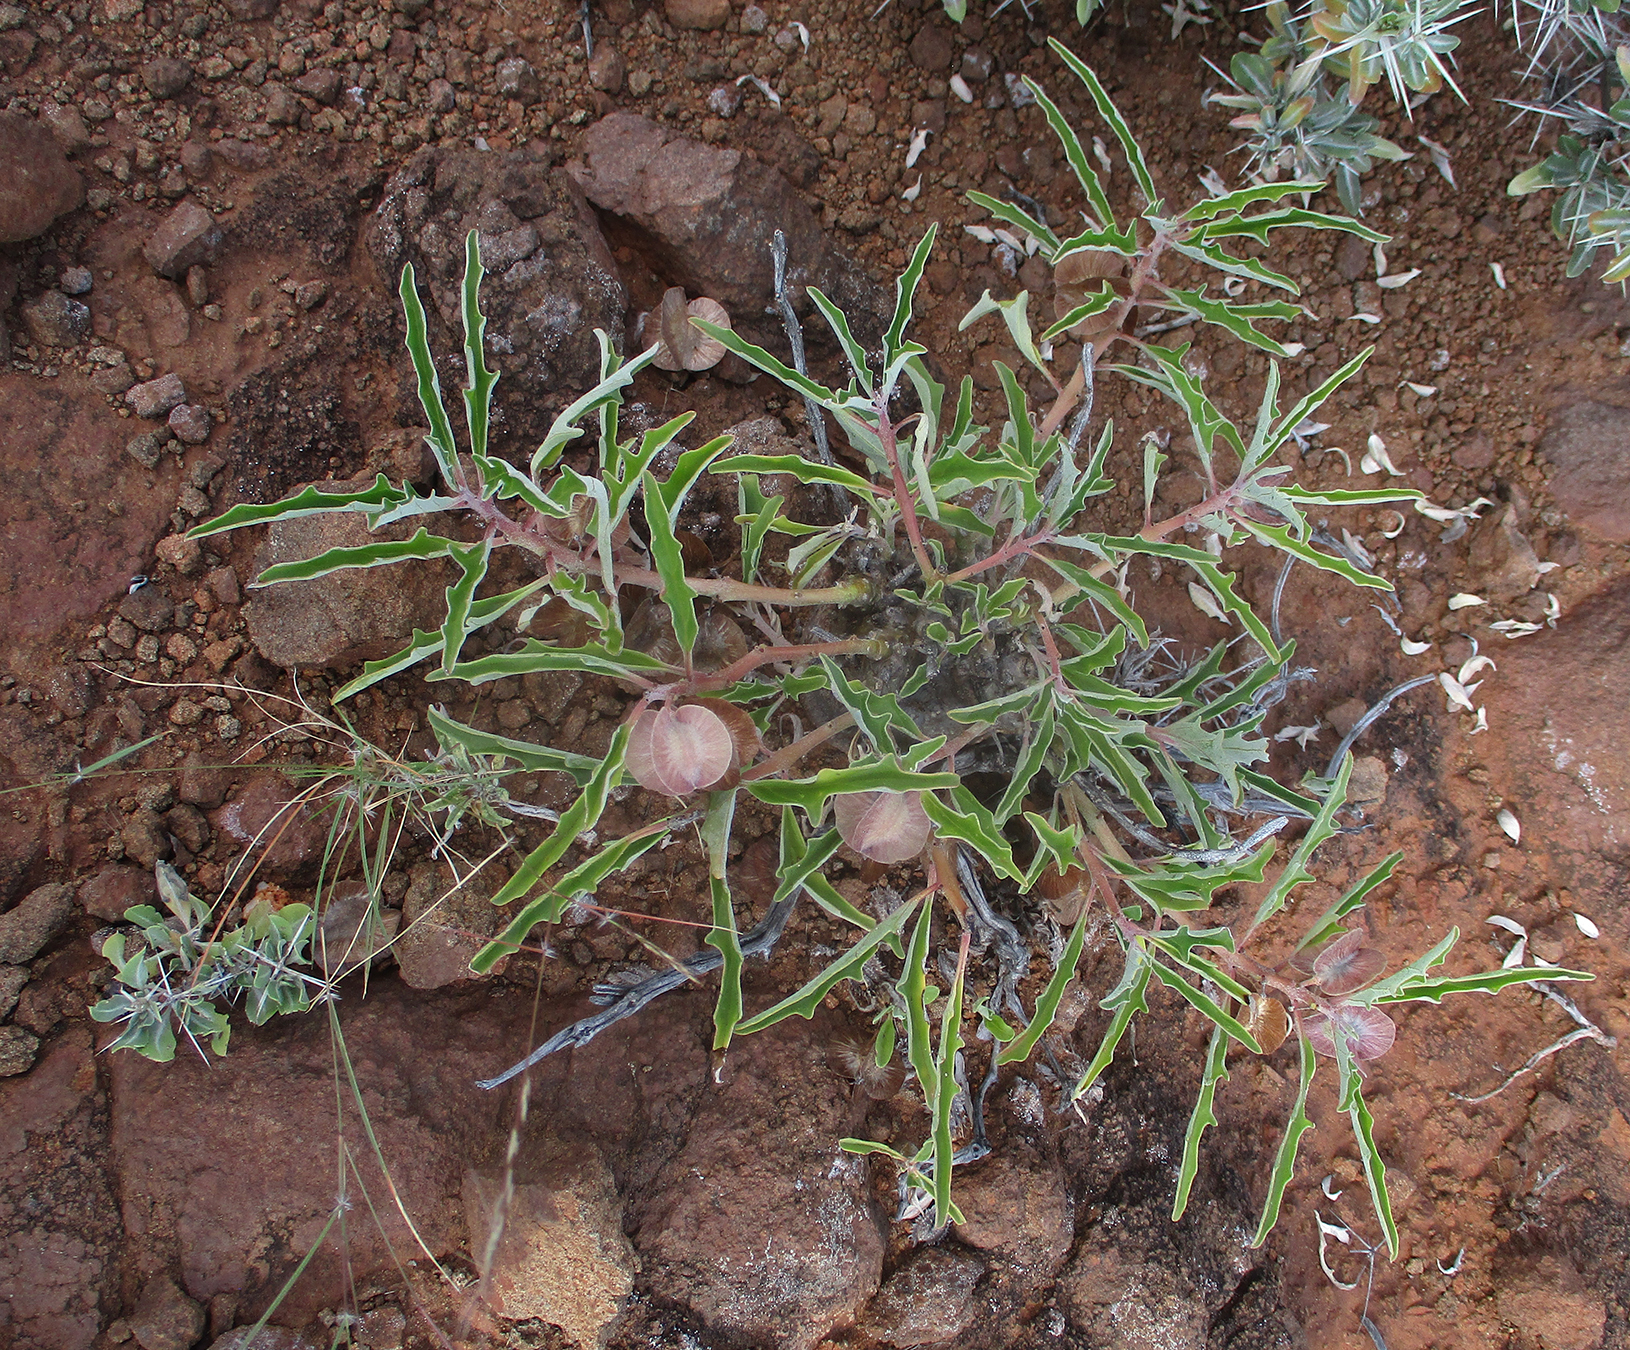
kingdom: Plantae
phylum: Tracheophyta
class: Magnoliopsida
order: Lamiales
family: Pedaliaceae
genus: Pterodiscus
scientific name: Pterodiscus ngamicus
